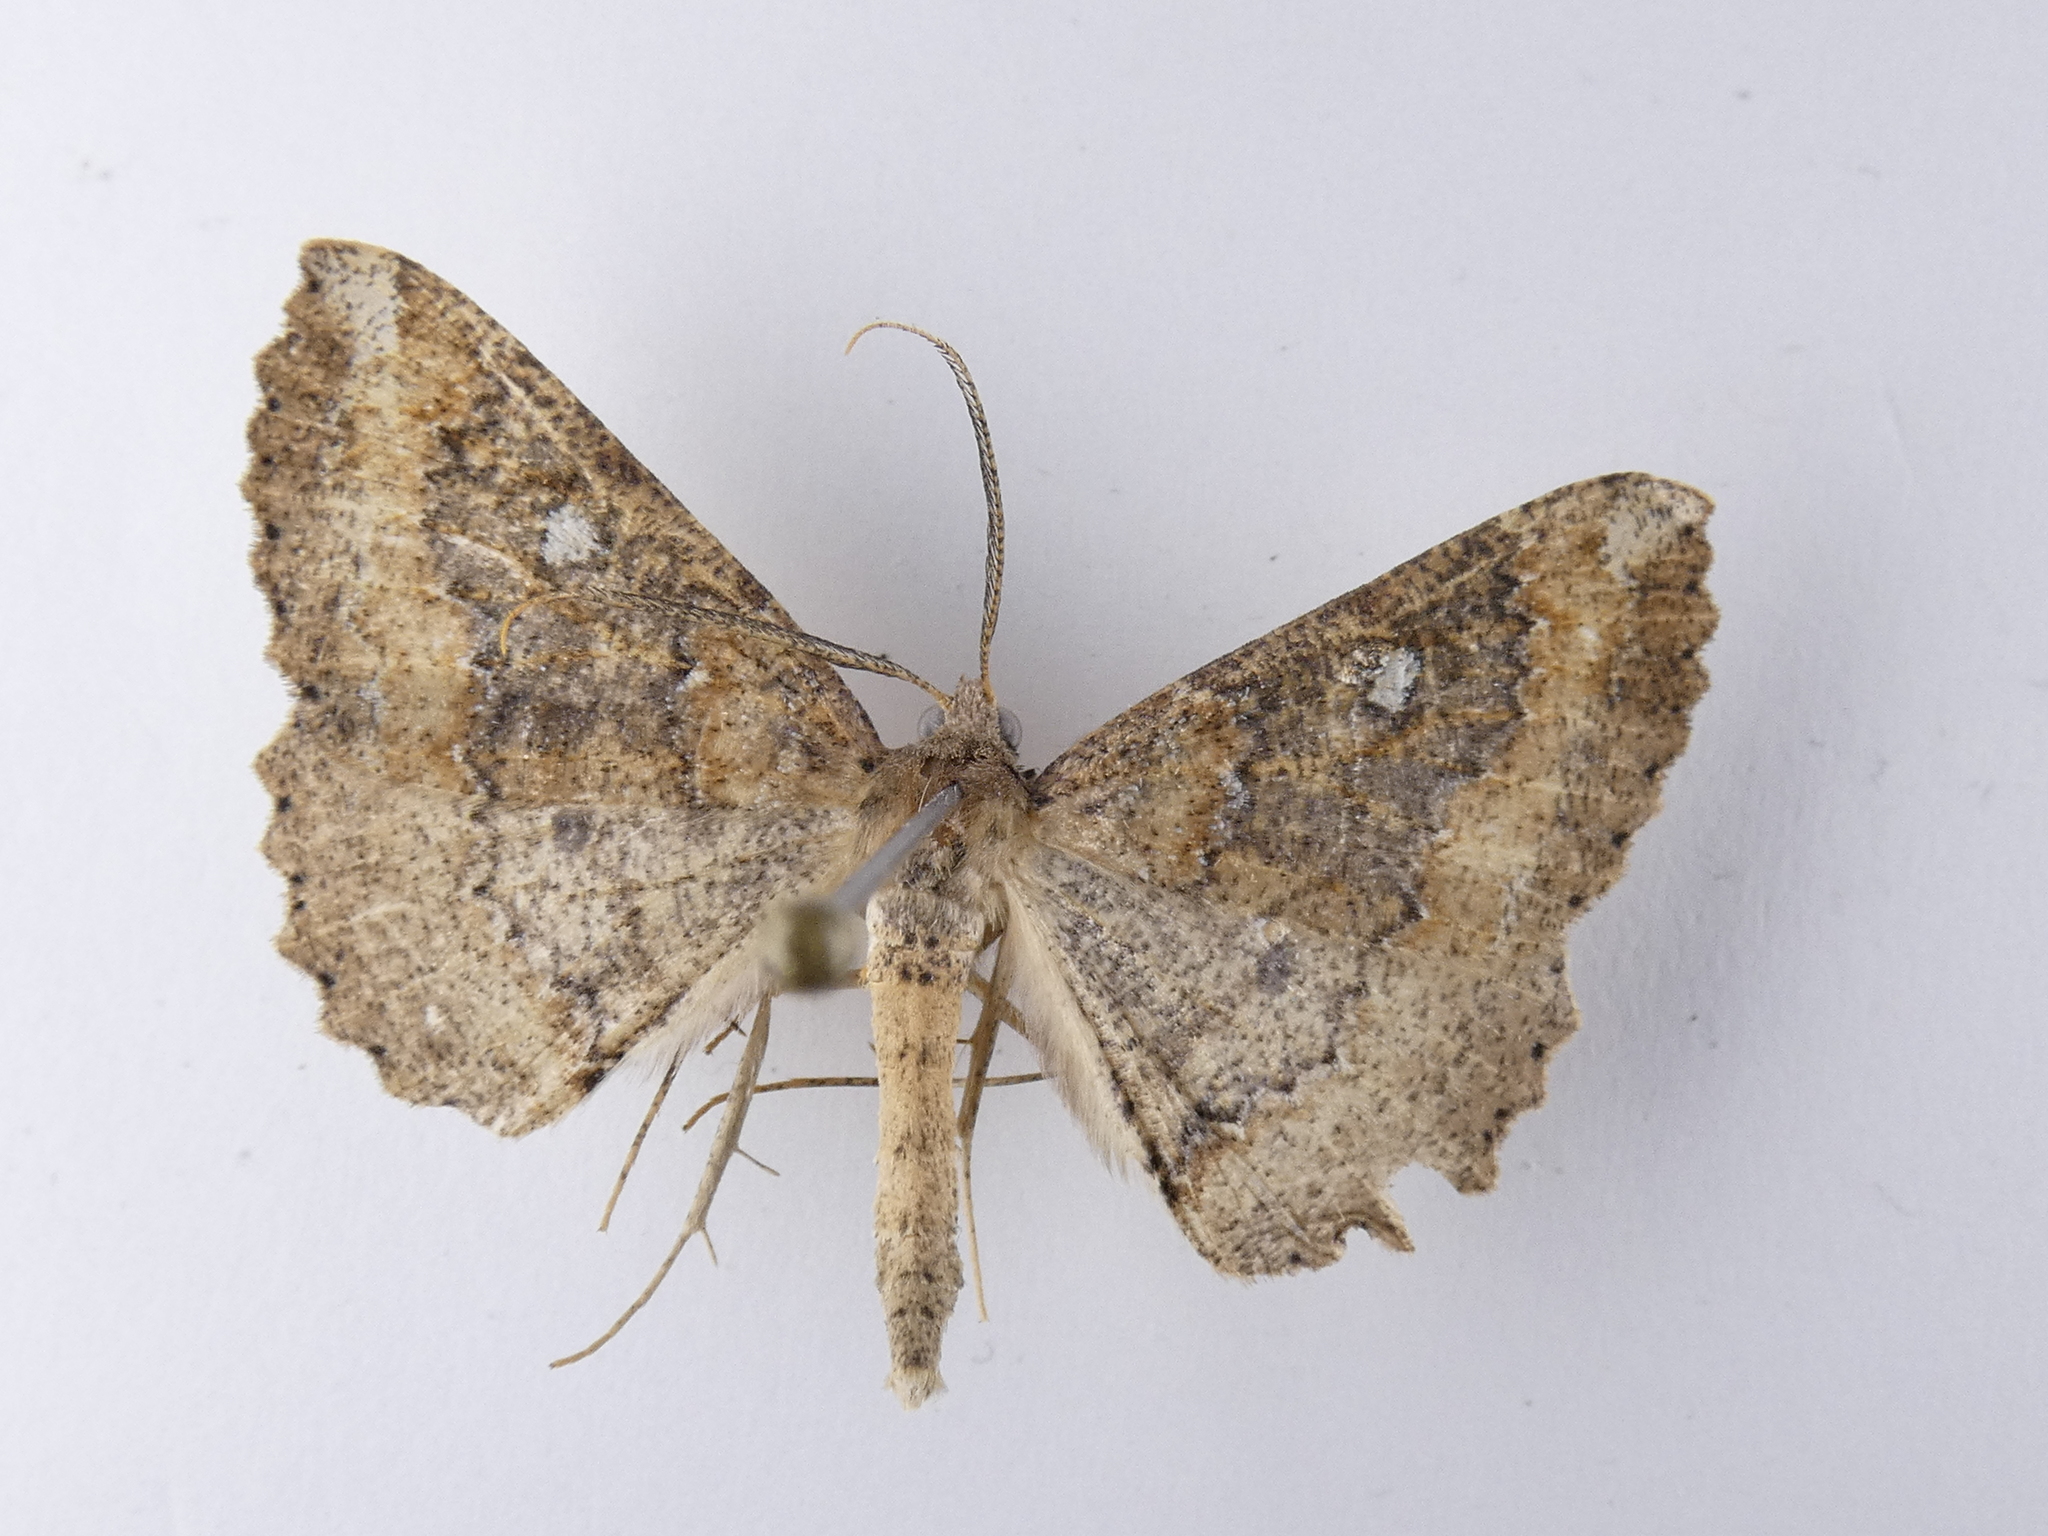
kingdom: Animalia
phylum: Arthropoda
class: Insecta
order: Lepidoptera
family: Geometridae
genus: Cleora
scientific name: Cleora scriptaria
